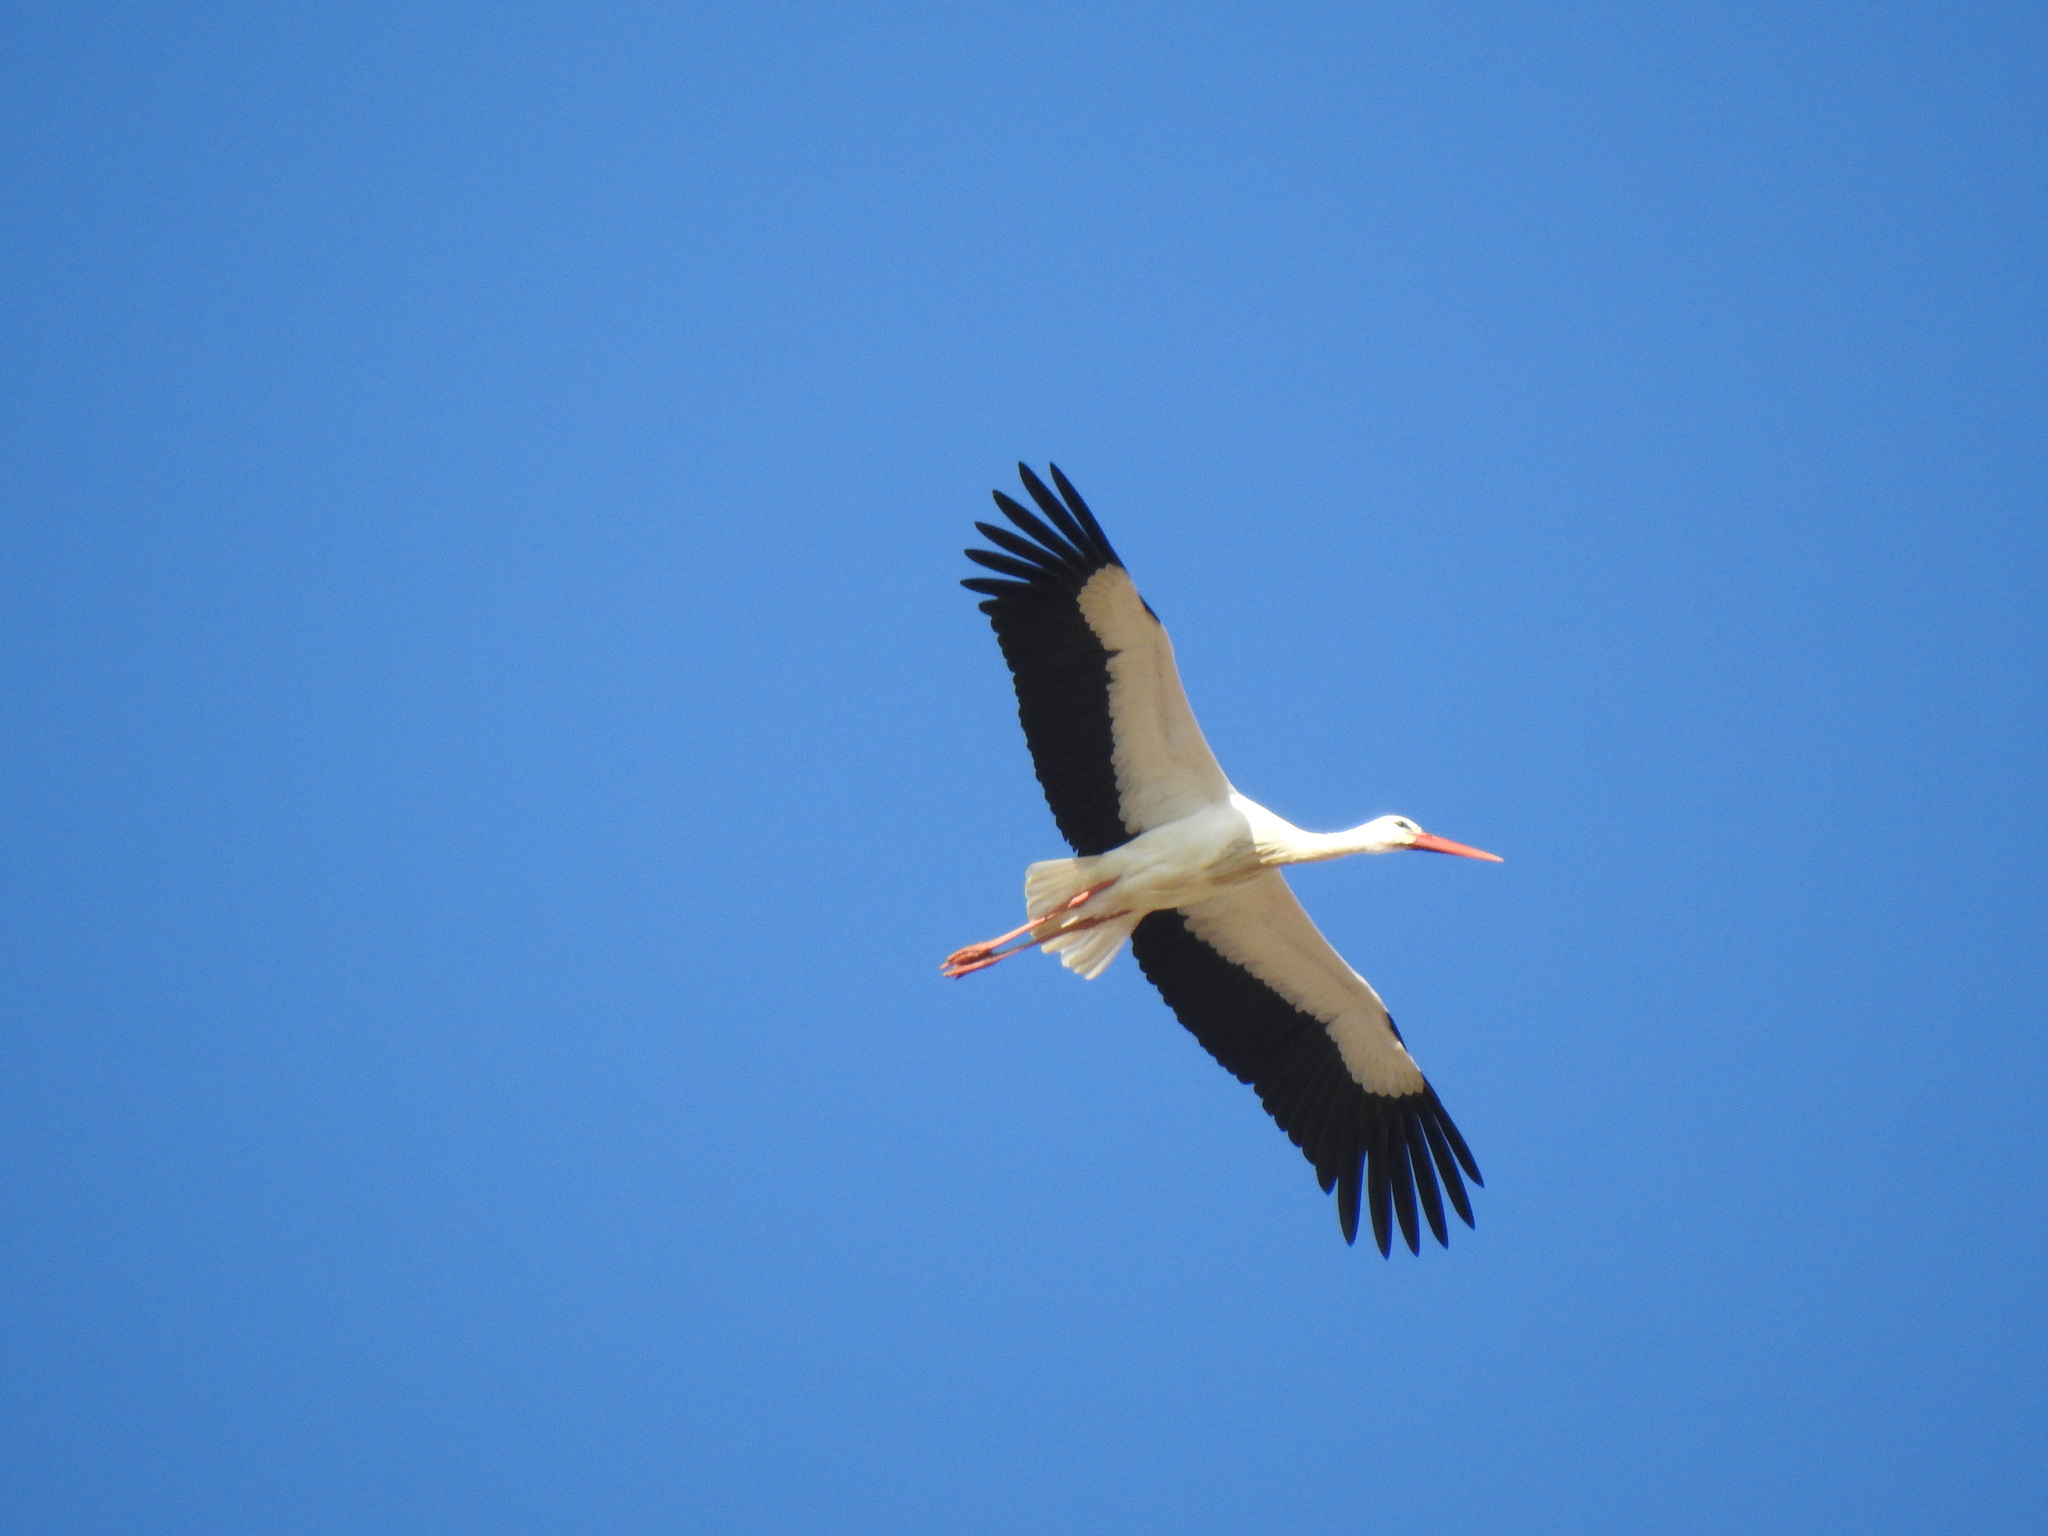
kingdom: Animalia
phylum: Chordata
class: Aves
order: Ciconiiformes
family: Ciconiidae
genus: Ciconia
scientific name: Ciconia ciconia
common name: White stork
